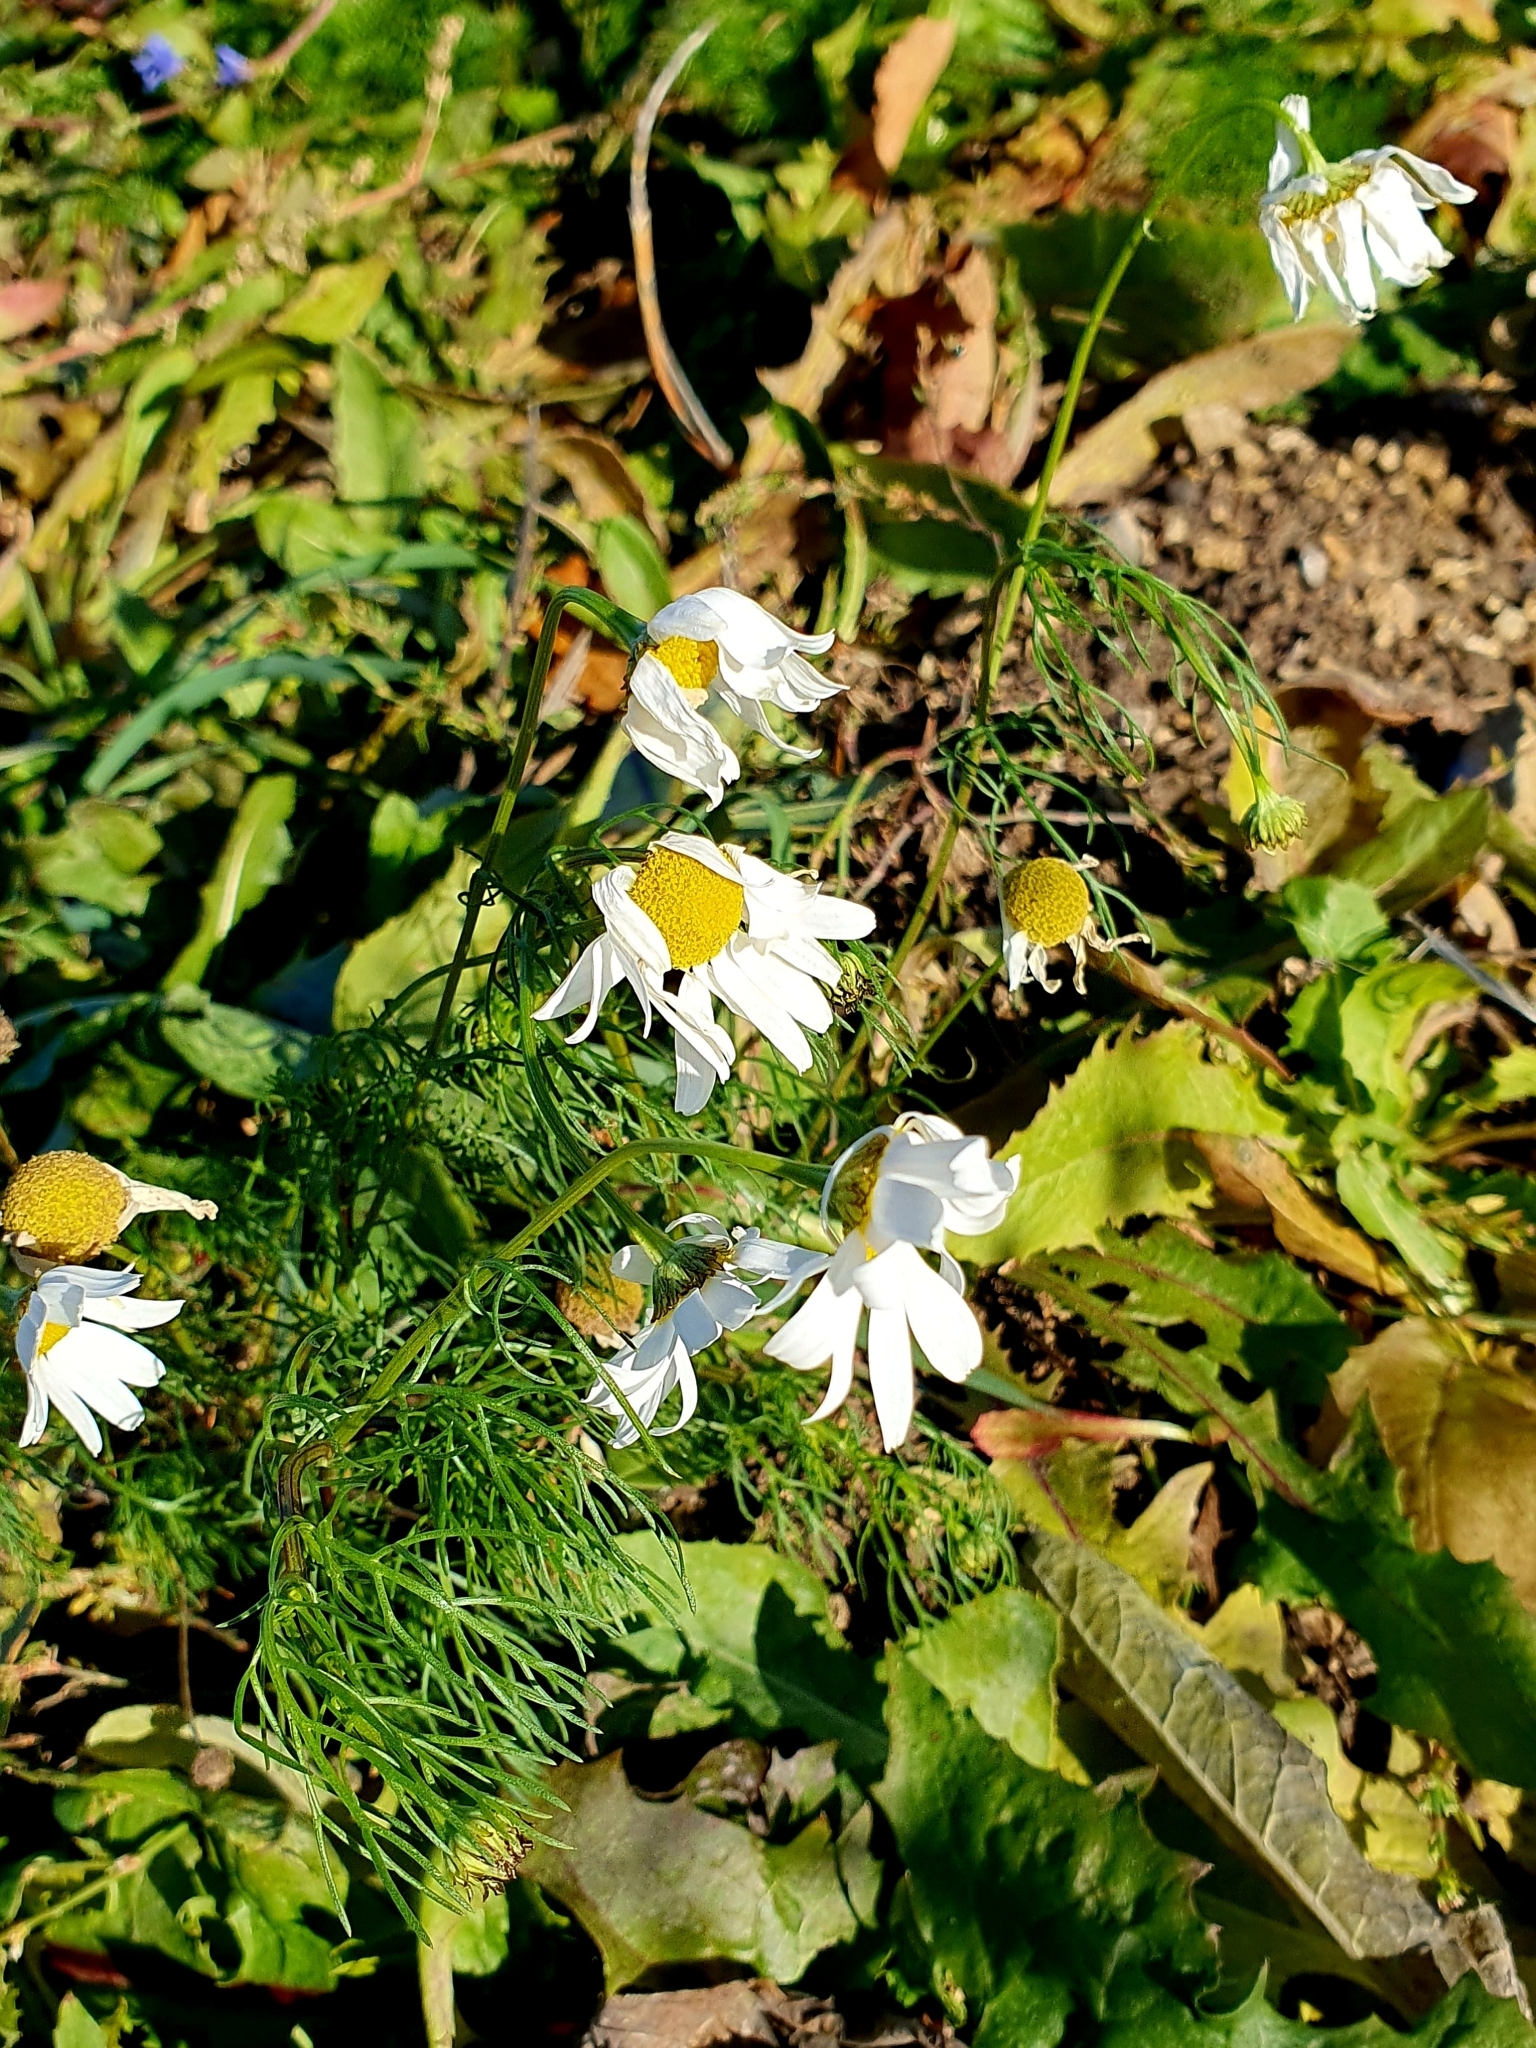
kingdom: Plantae
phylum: Tracheophyta
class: Magnoliopsida
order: Asterales
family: Asteraceae
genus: Tripleurospermum
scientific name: Tripleurospermum inodorum
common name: Scentless mayweed
